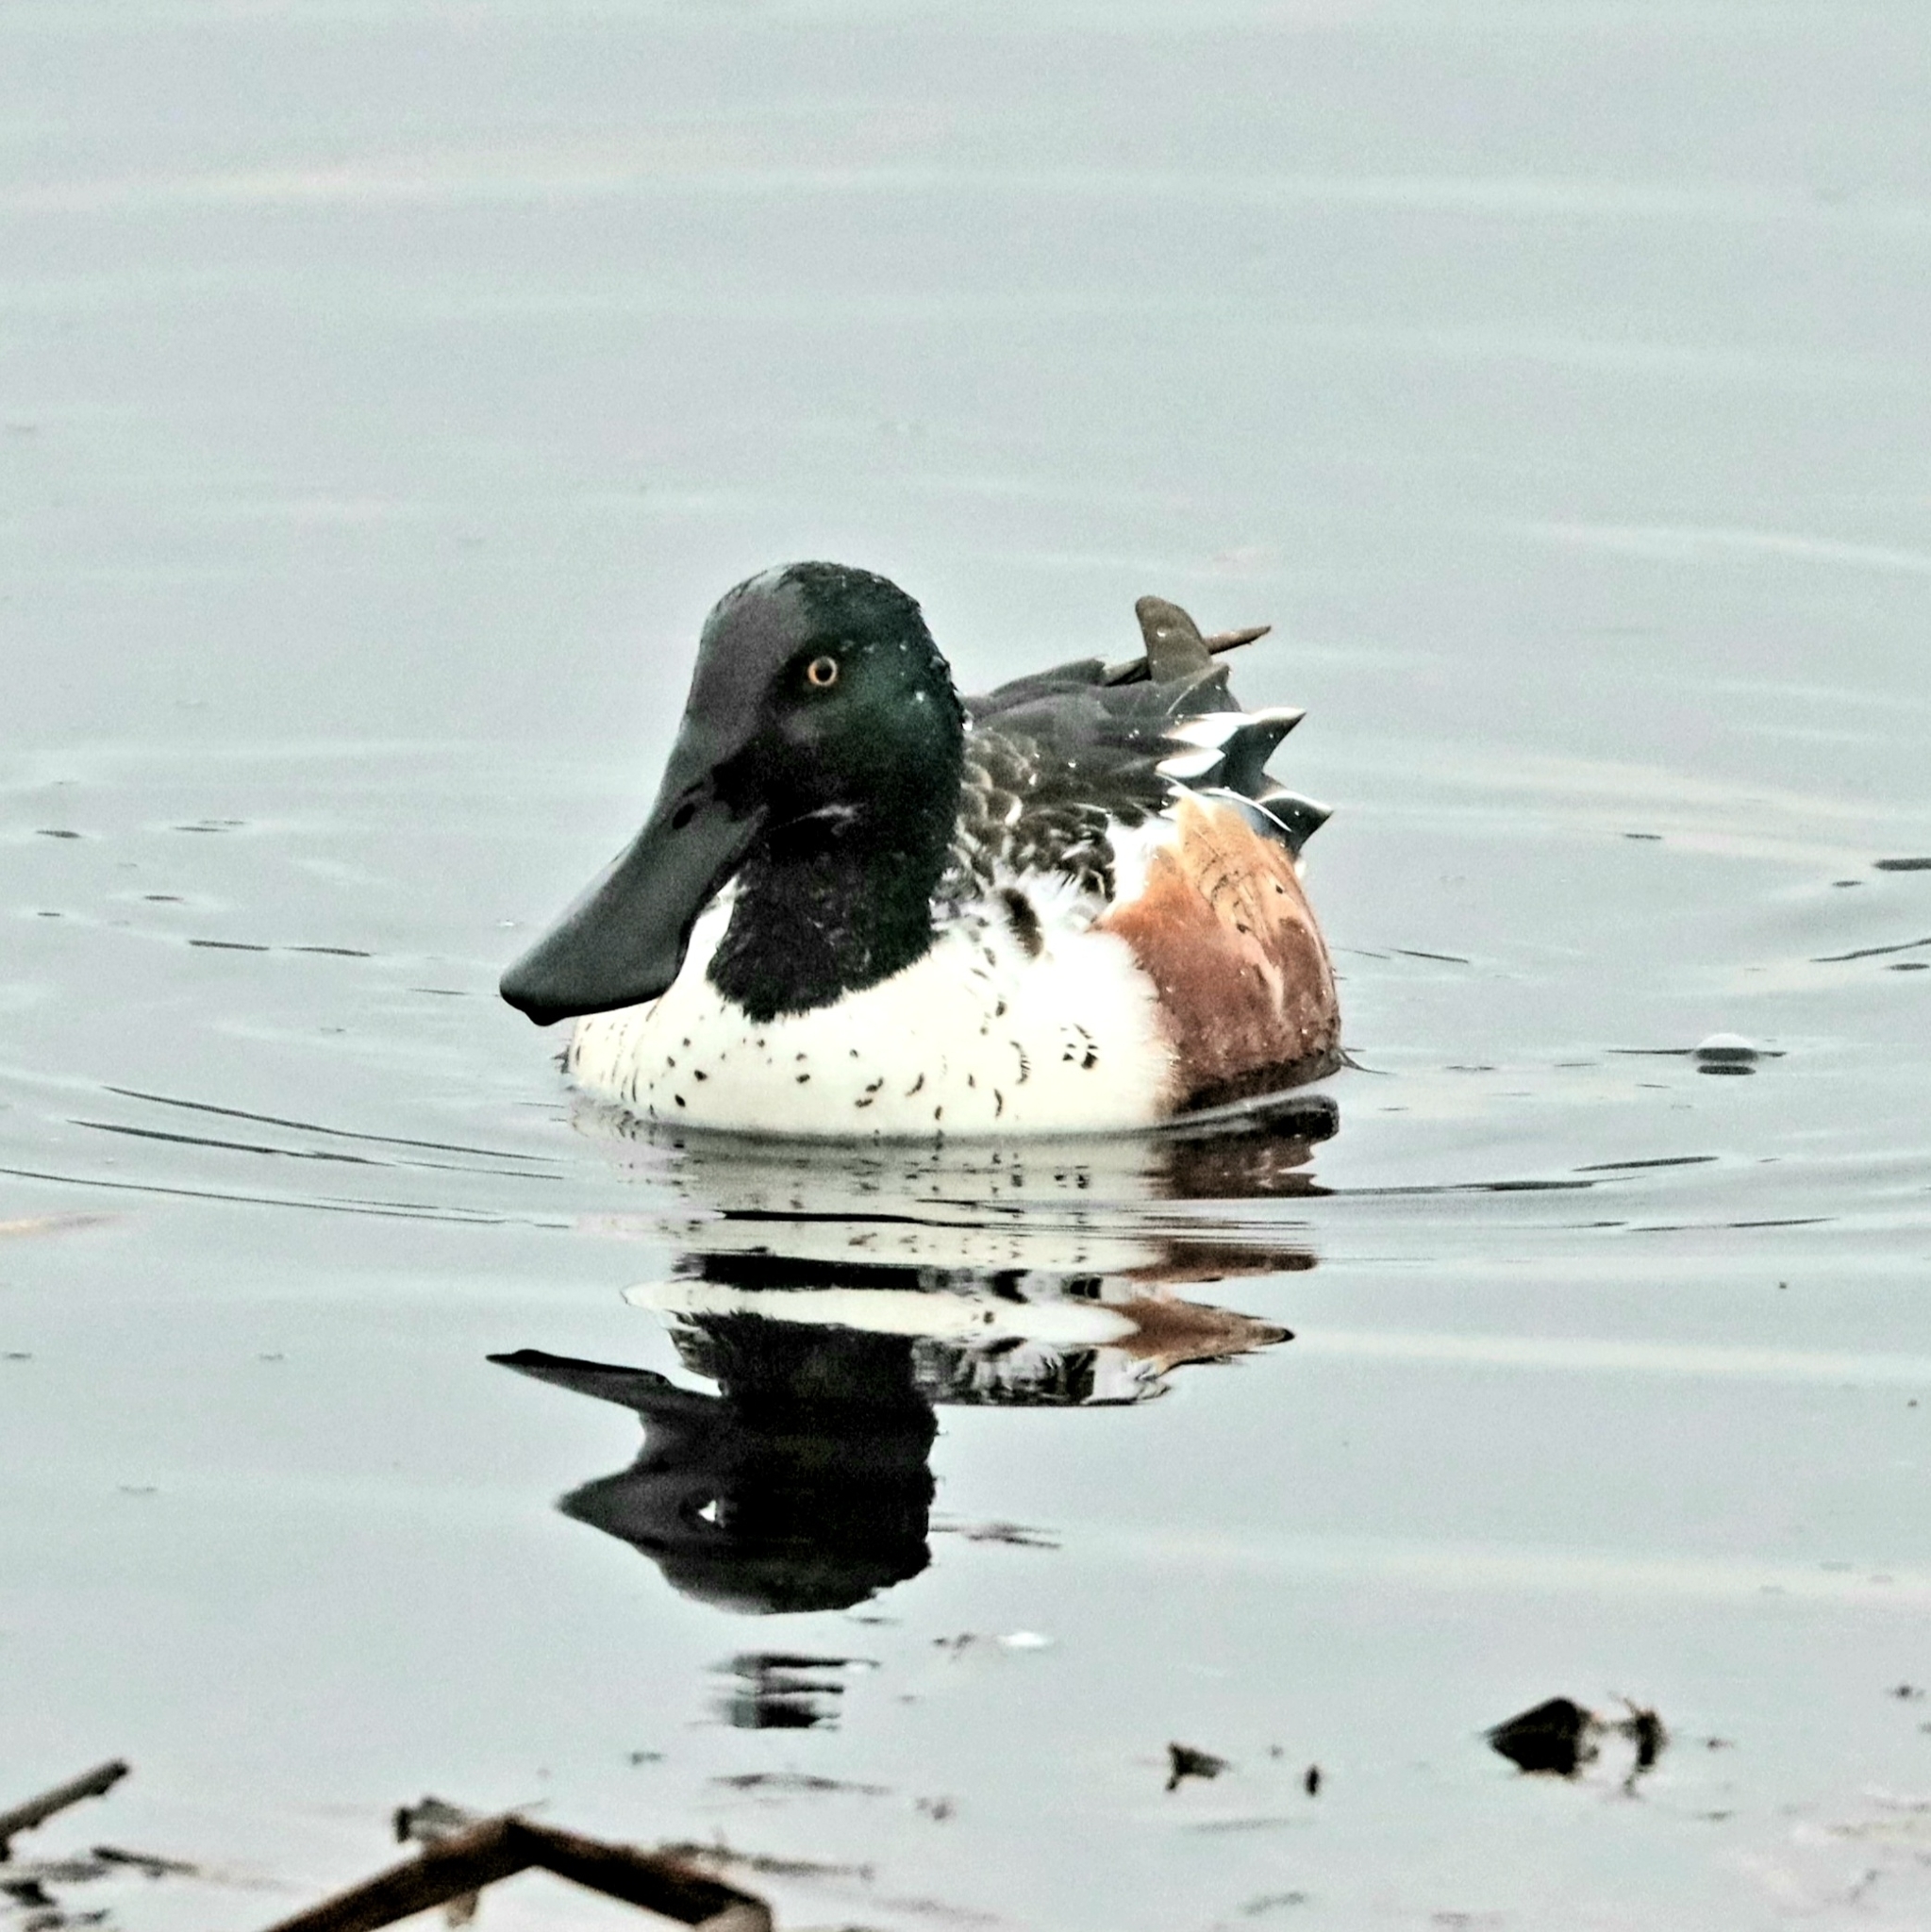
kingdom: Animalia
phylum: Chordata
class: Aves
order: Anseriformes
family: Anatidae
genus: Spatula
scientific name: Spatula clypeata
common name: Northern shoveler
